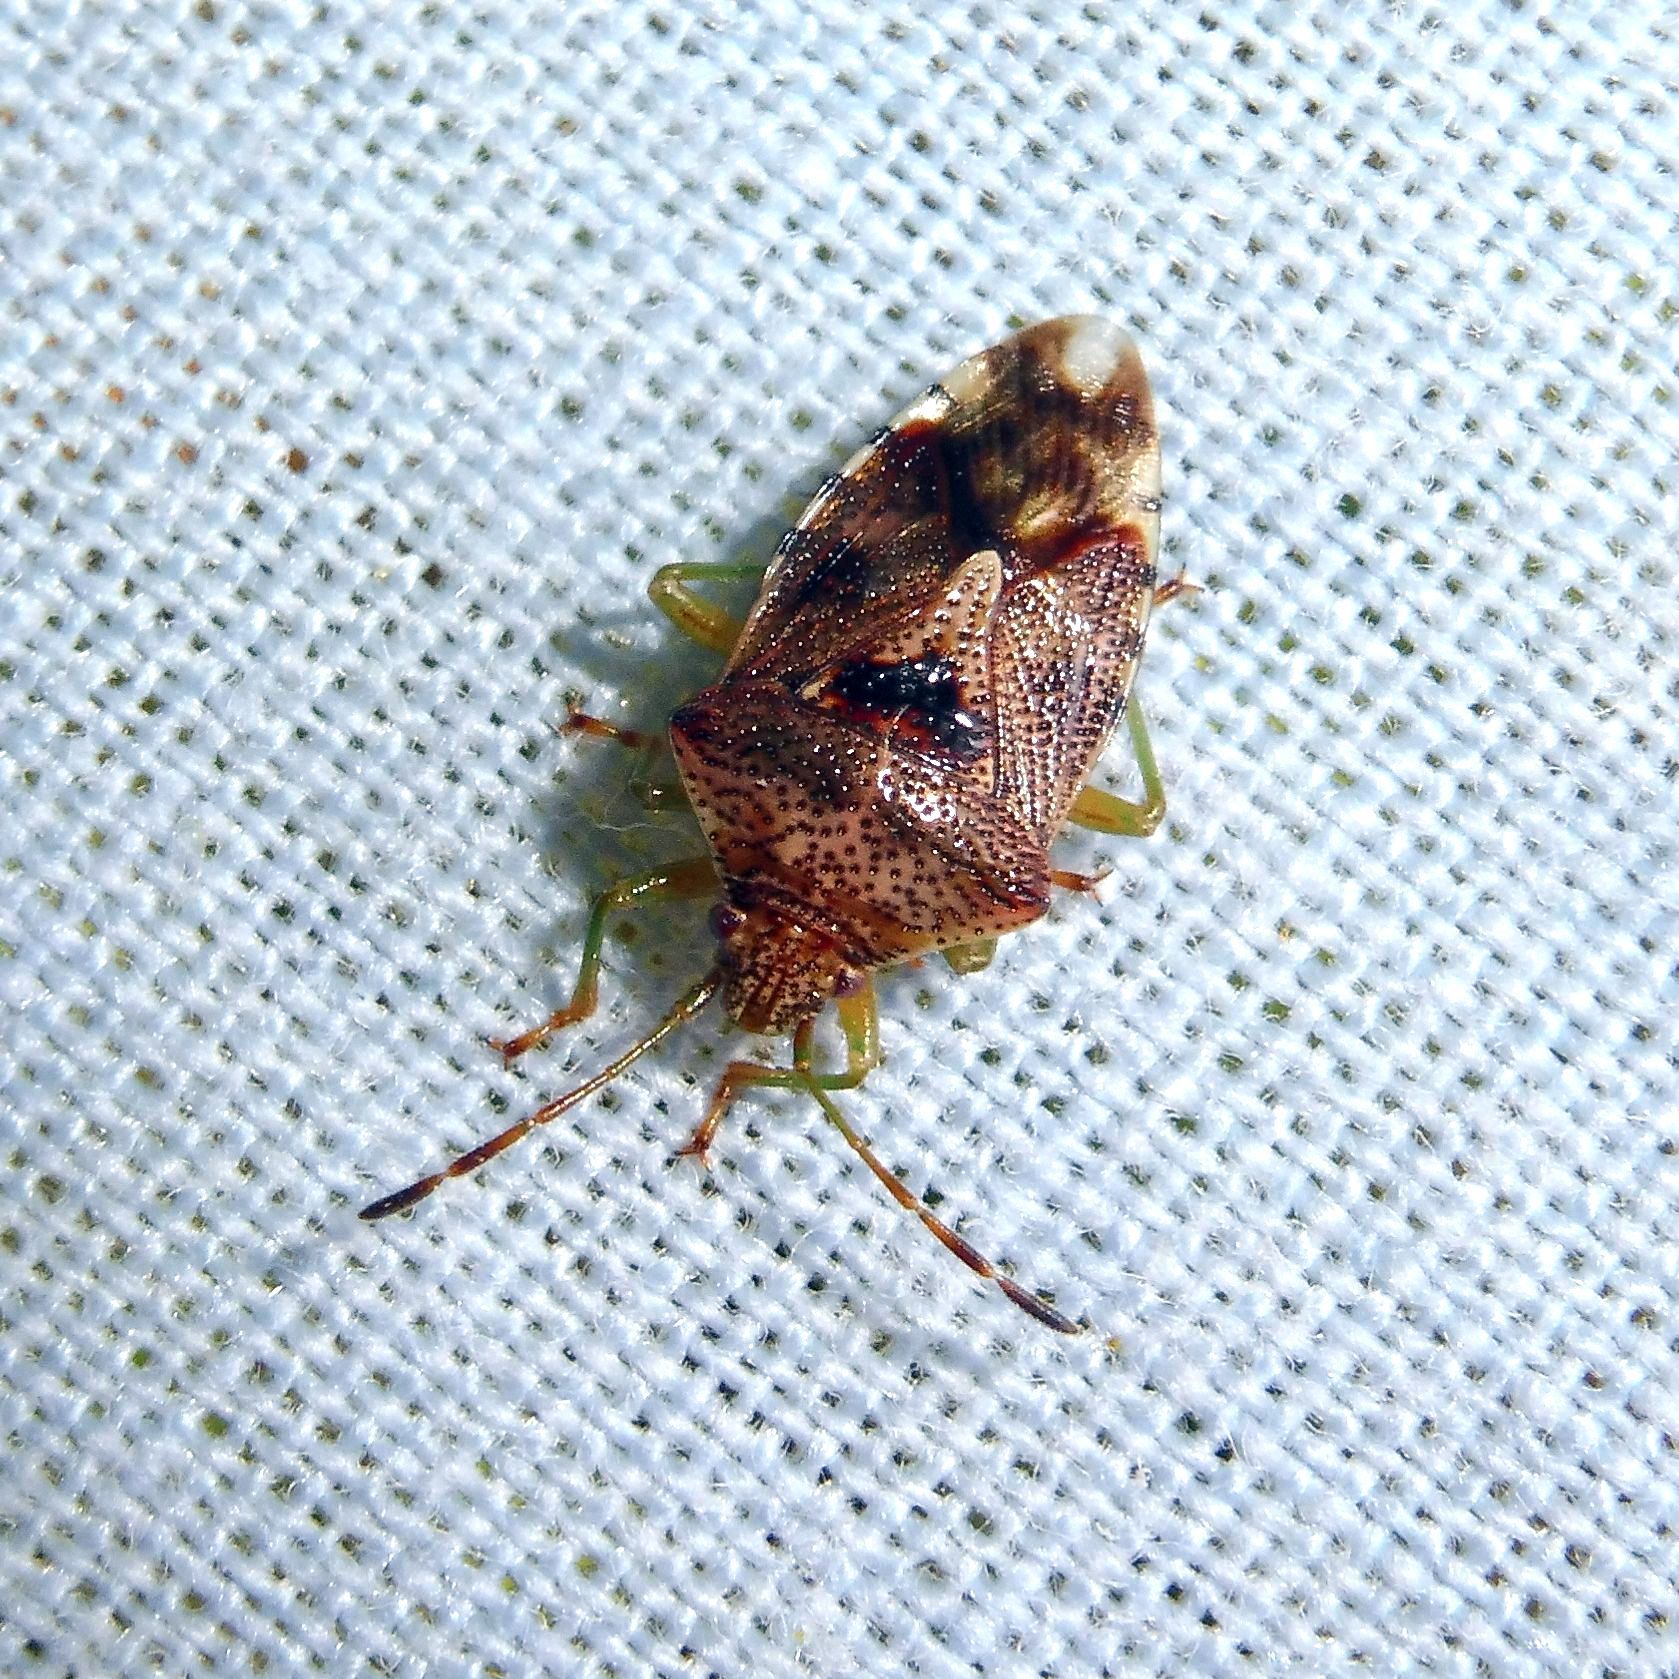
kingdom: Animalia
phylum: Arthropoda
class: Insecta
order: Hemiptera
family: Acanthosomatidae
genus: Elasmucha
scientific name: Elasmucha grisea
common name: Parent bug
